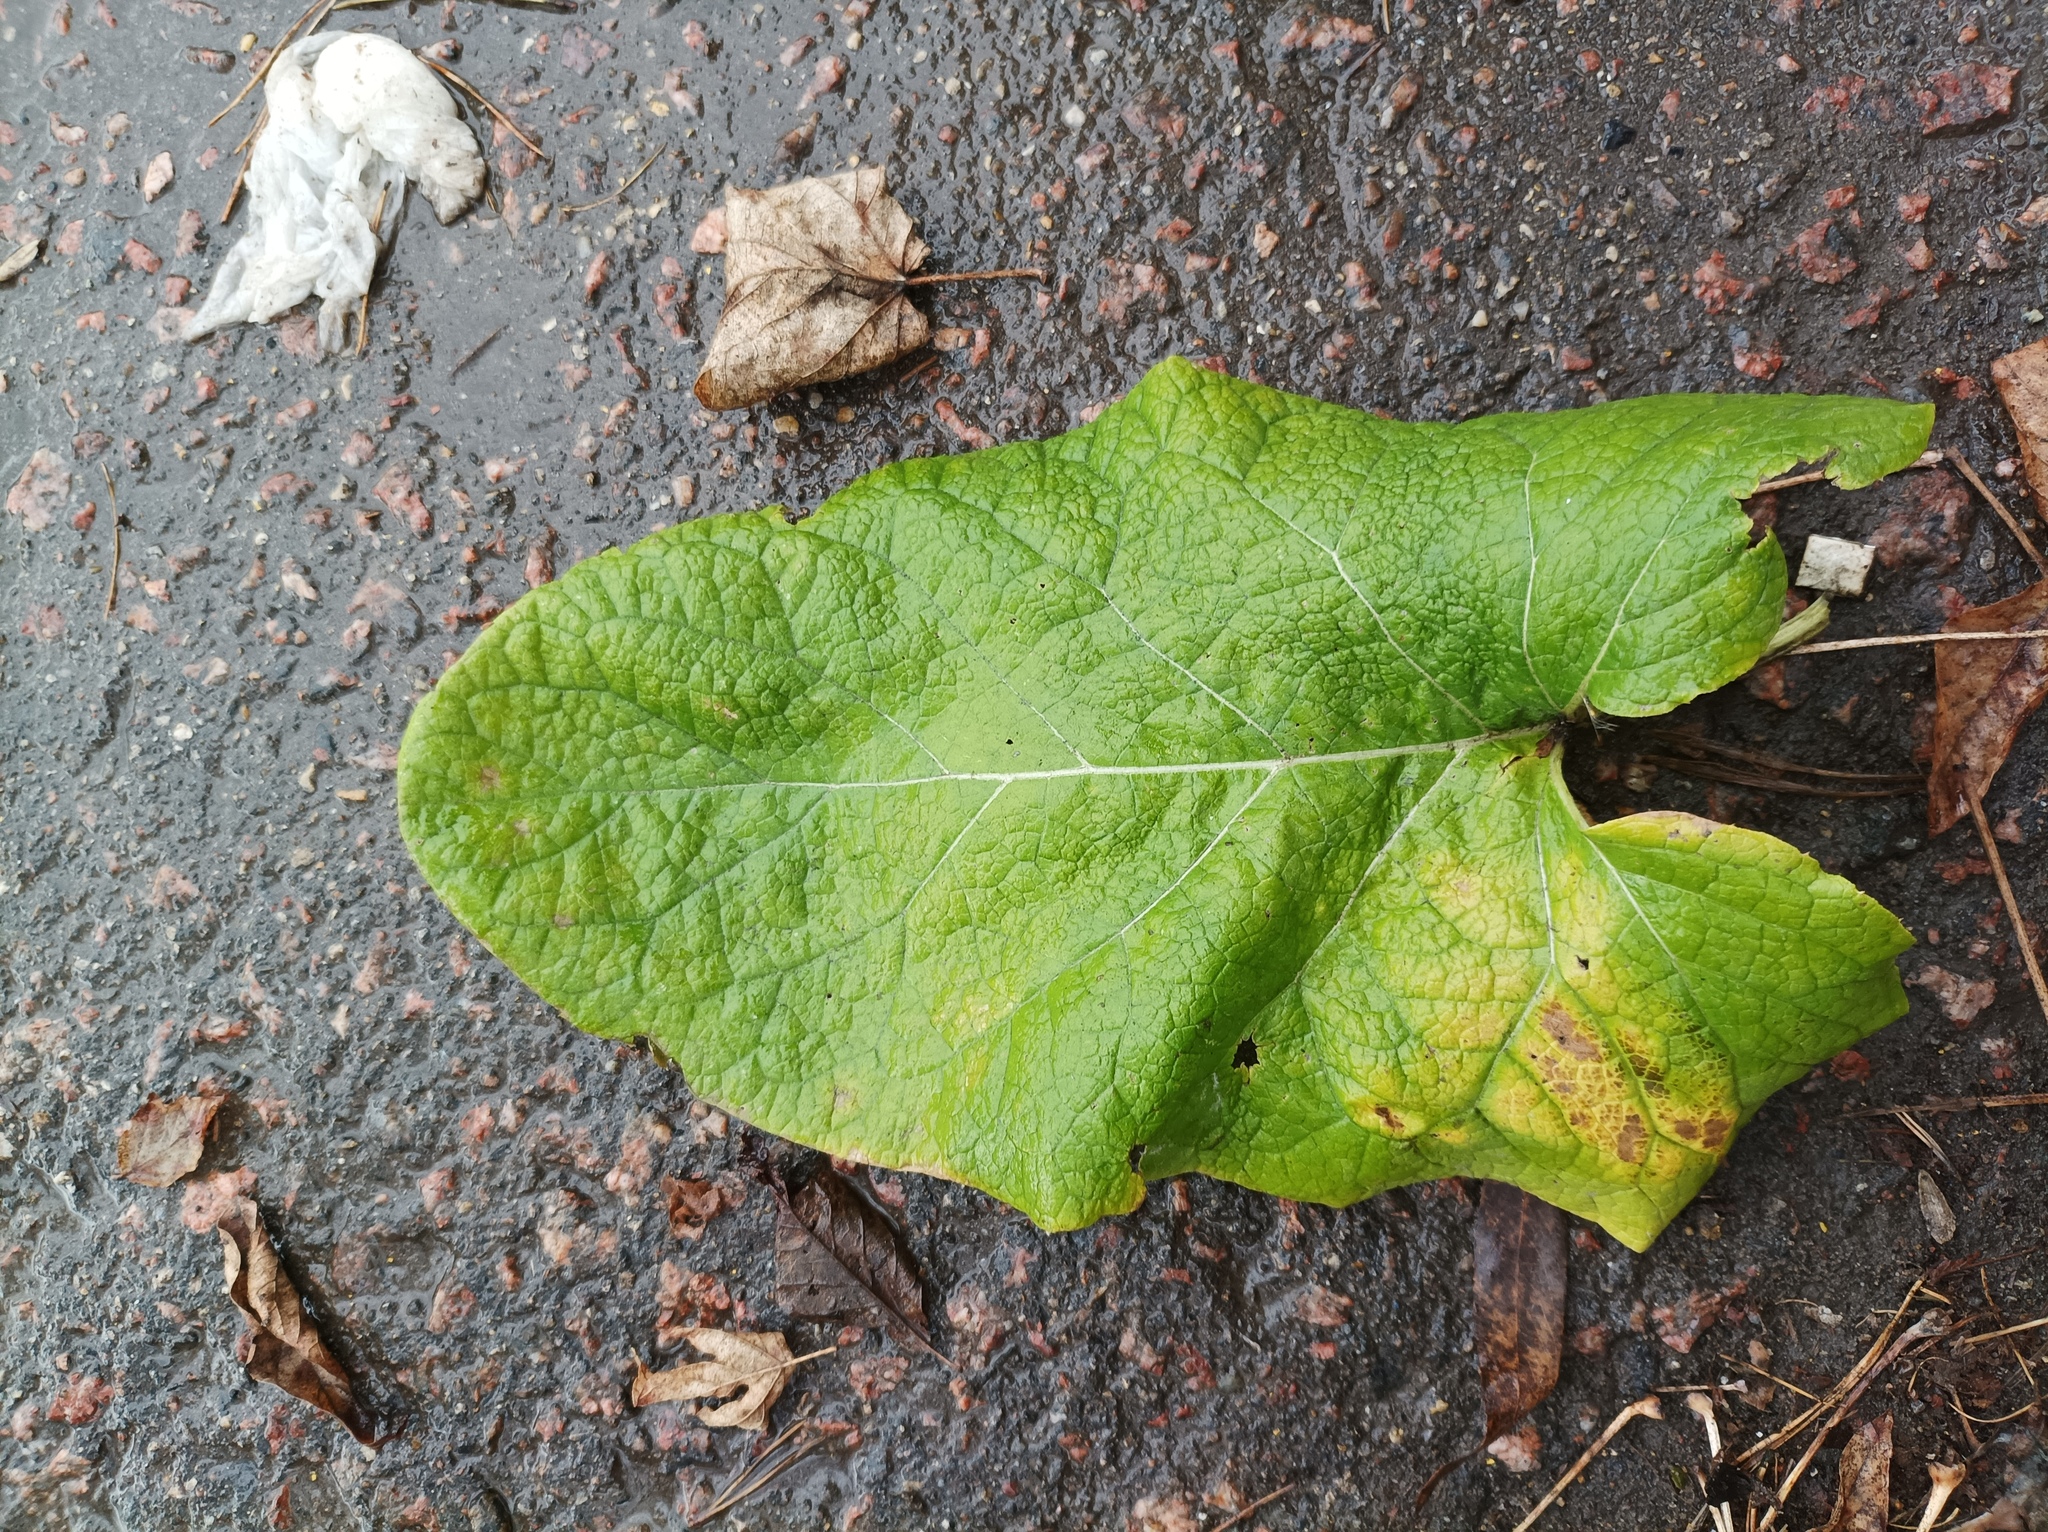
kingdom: Plantae
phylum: Tracheophyta
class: Magnoliopsida
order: Asterales
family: Asteraceae
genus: Arctium
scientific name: Arctium
